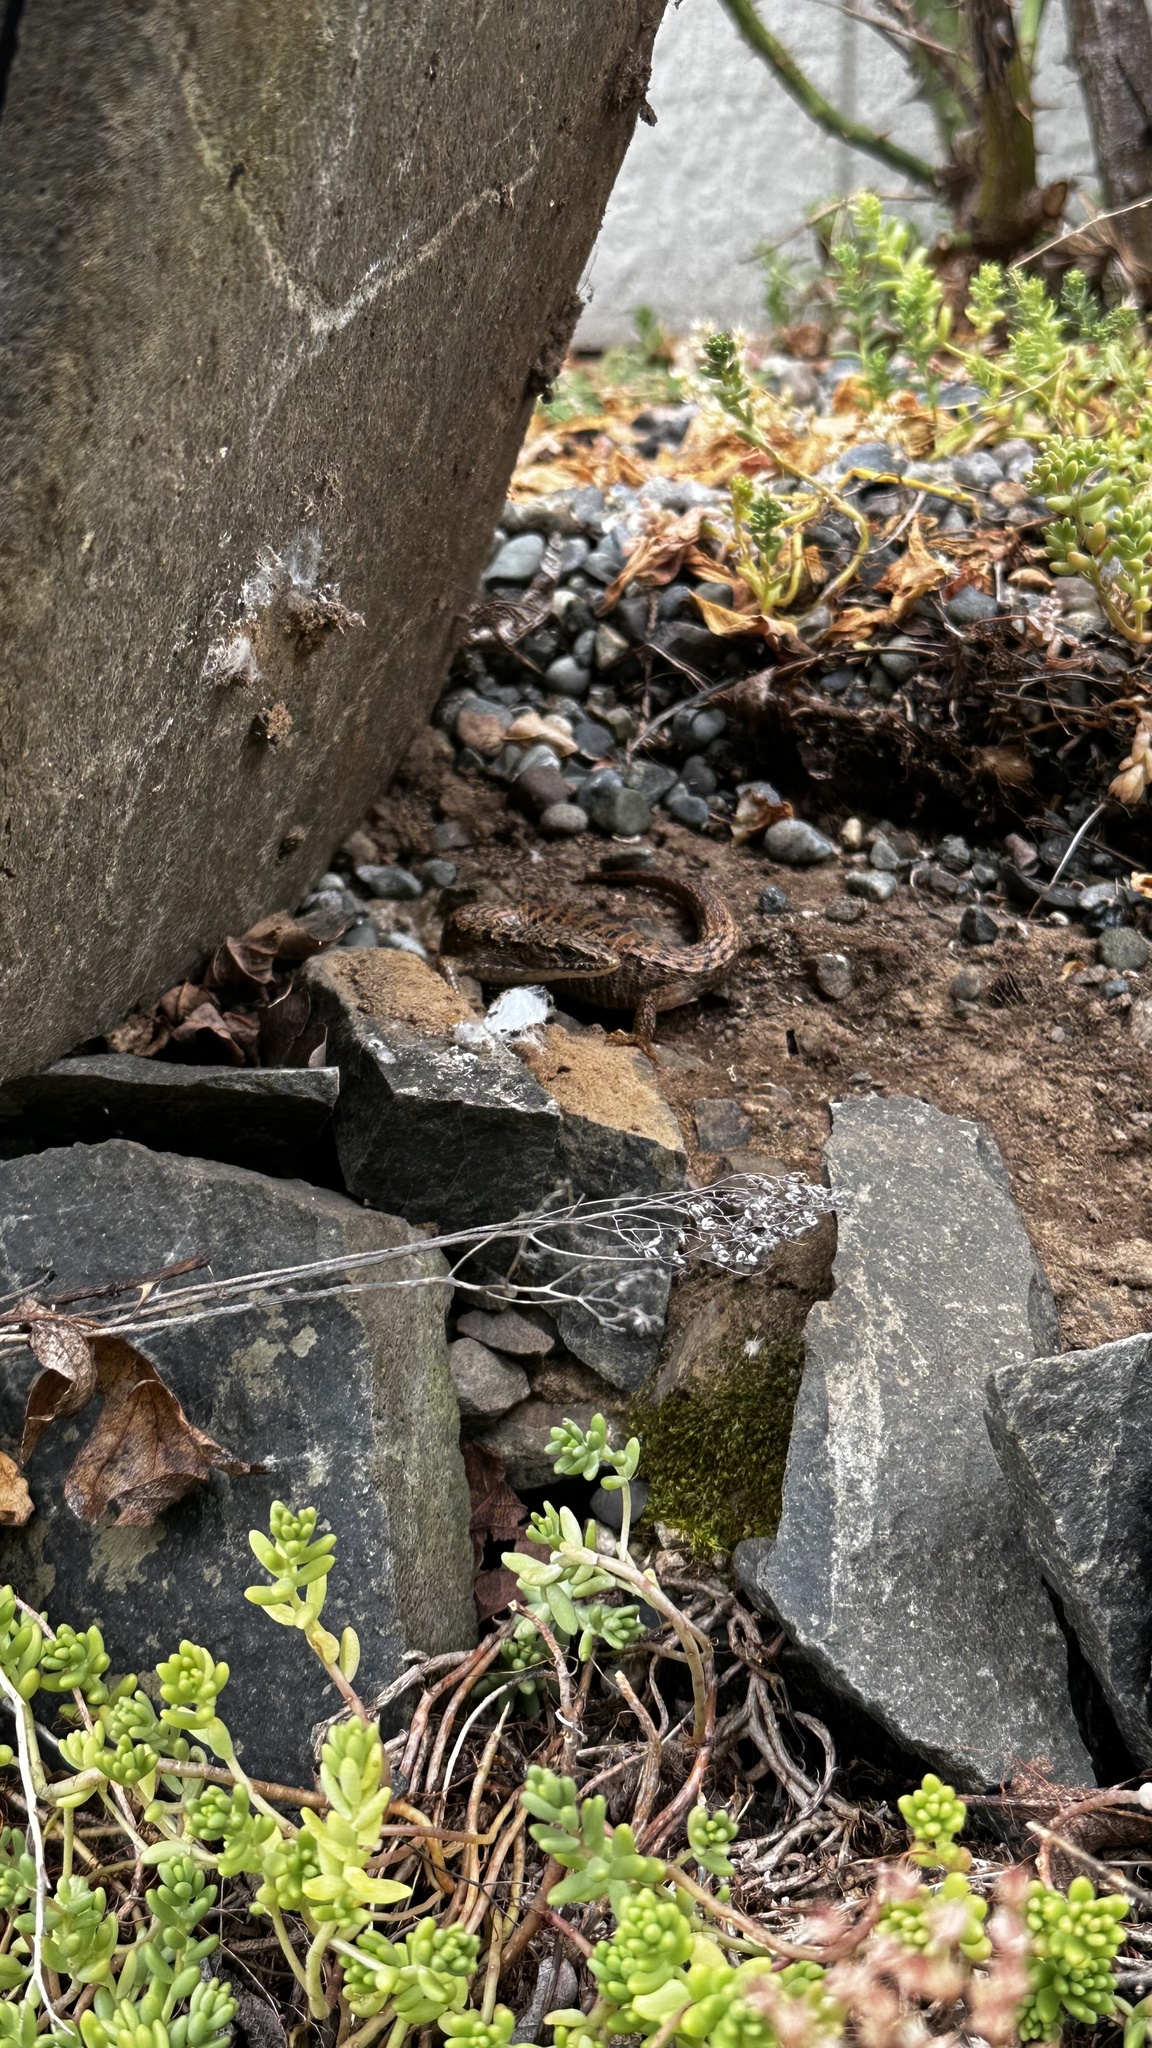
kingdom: Animalia
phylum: Chordata
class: Squamata
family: Anguidae
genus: Elgaria
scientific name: Elgaria coerulea
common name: Northern alligator lizard
